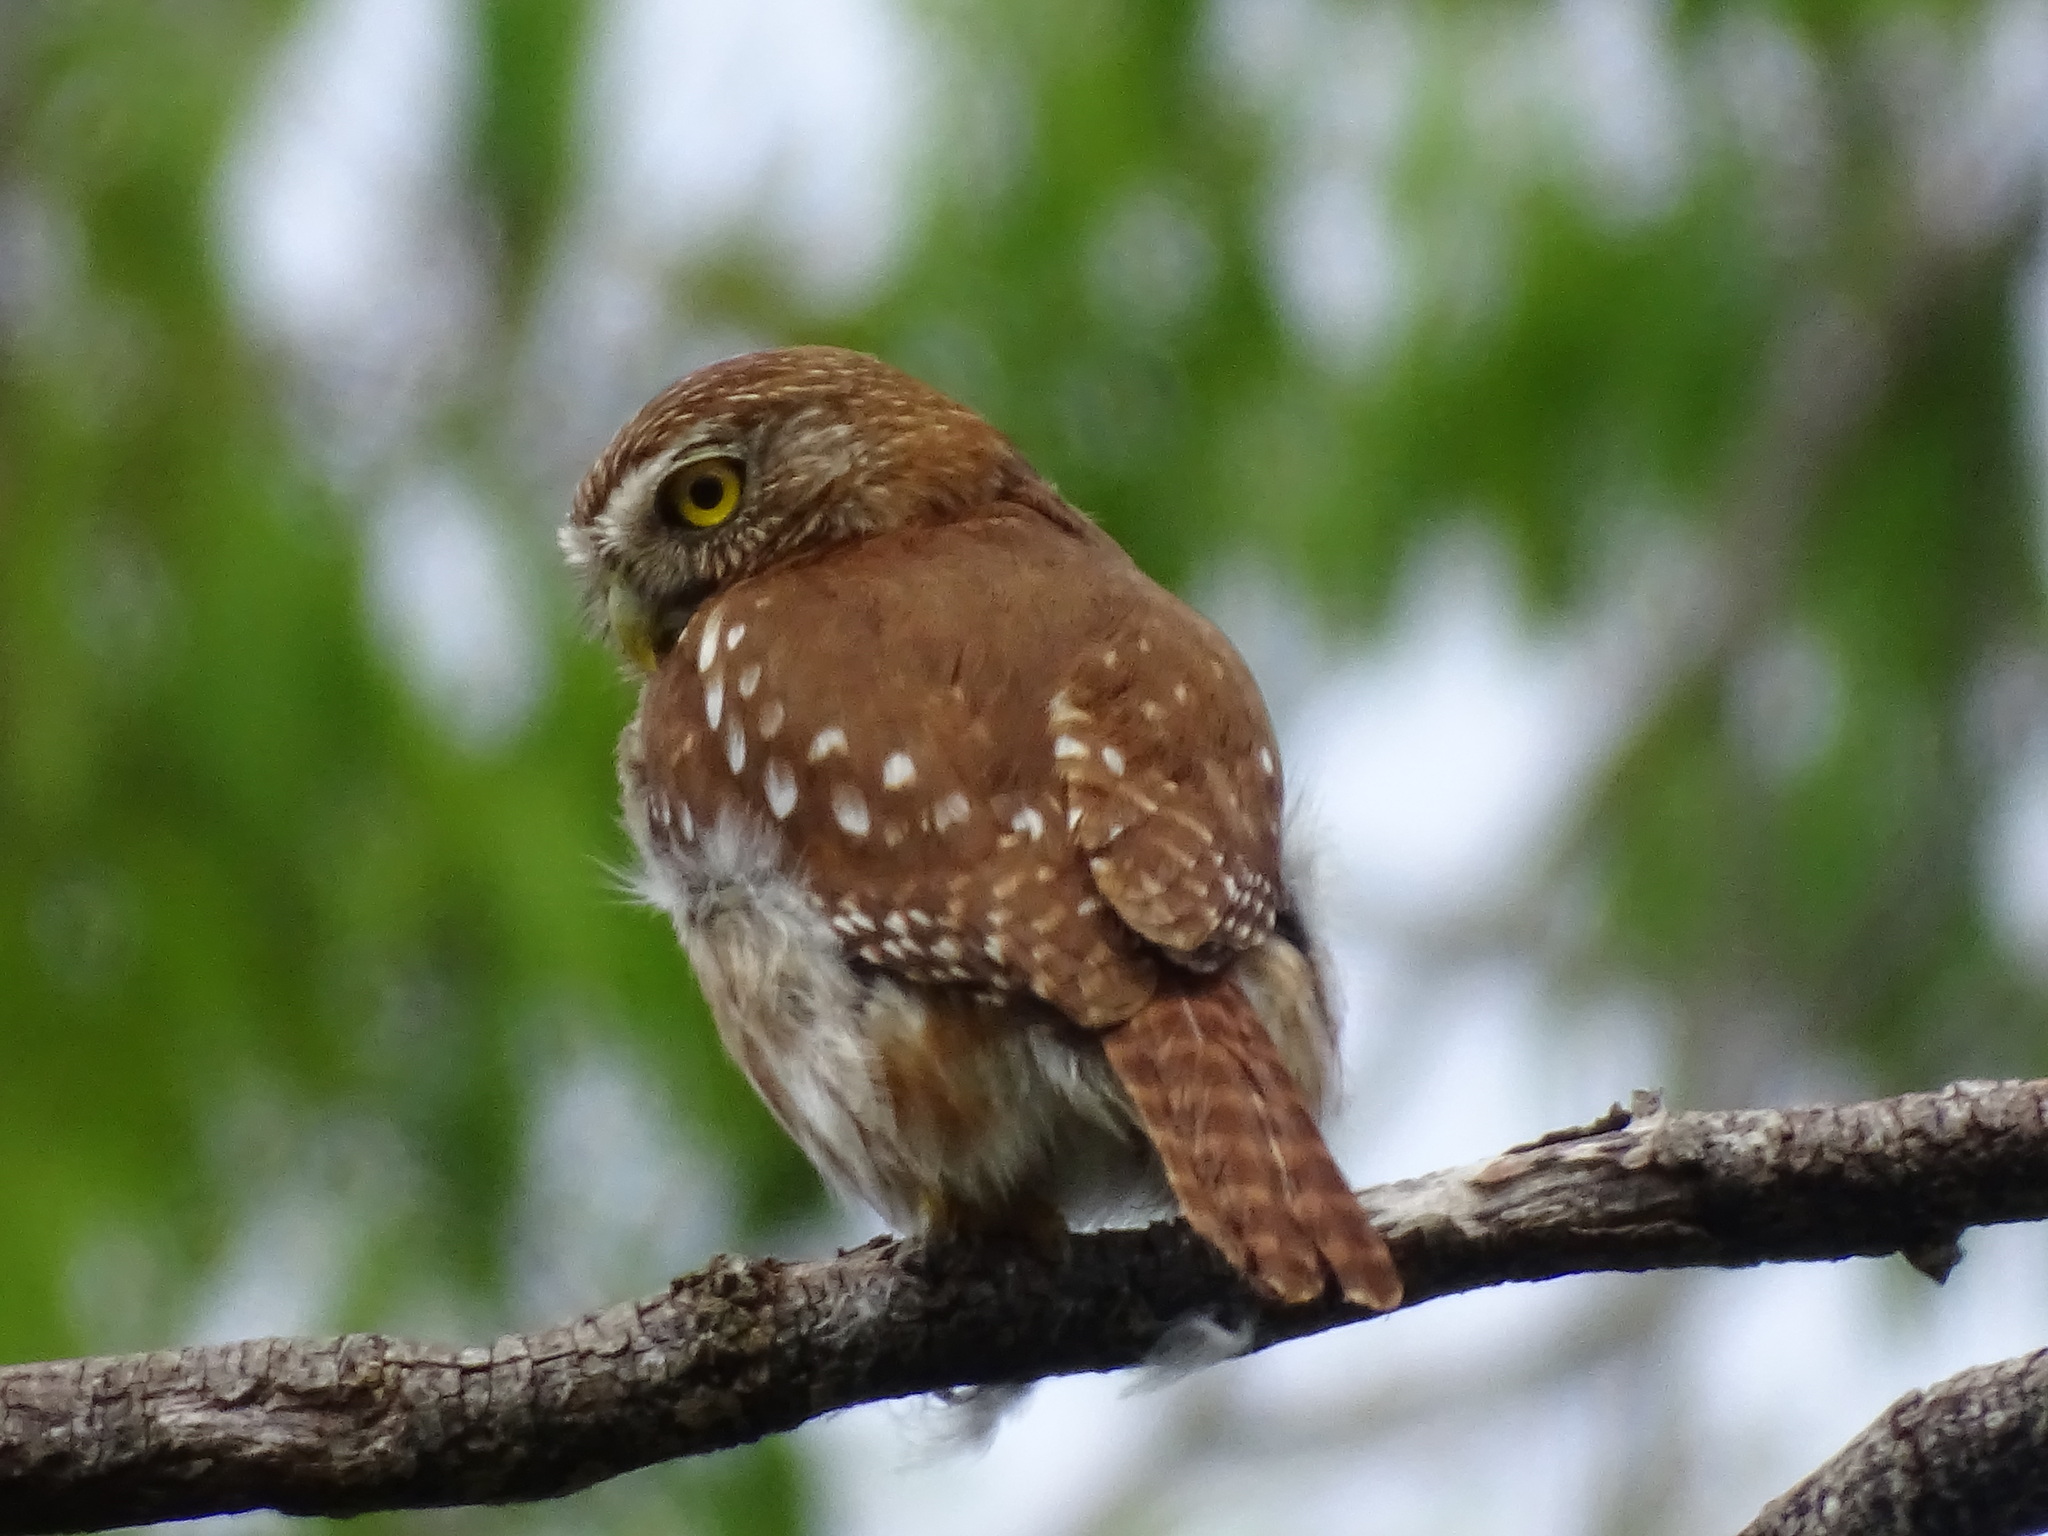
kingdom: Animalia
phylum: Chordata
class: Aves
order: Strigiformes
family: Strigidae
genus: Glaucidium
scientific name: Glaucidium brasilianum
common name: Ferruginous pygmy-owl
